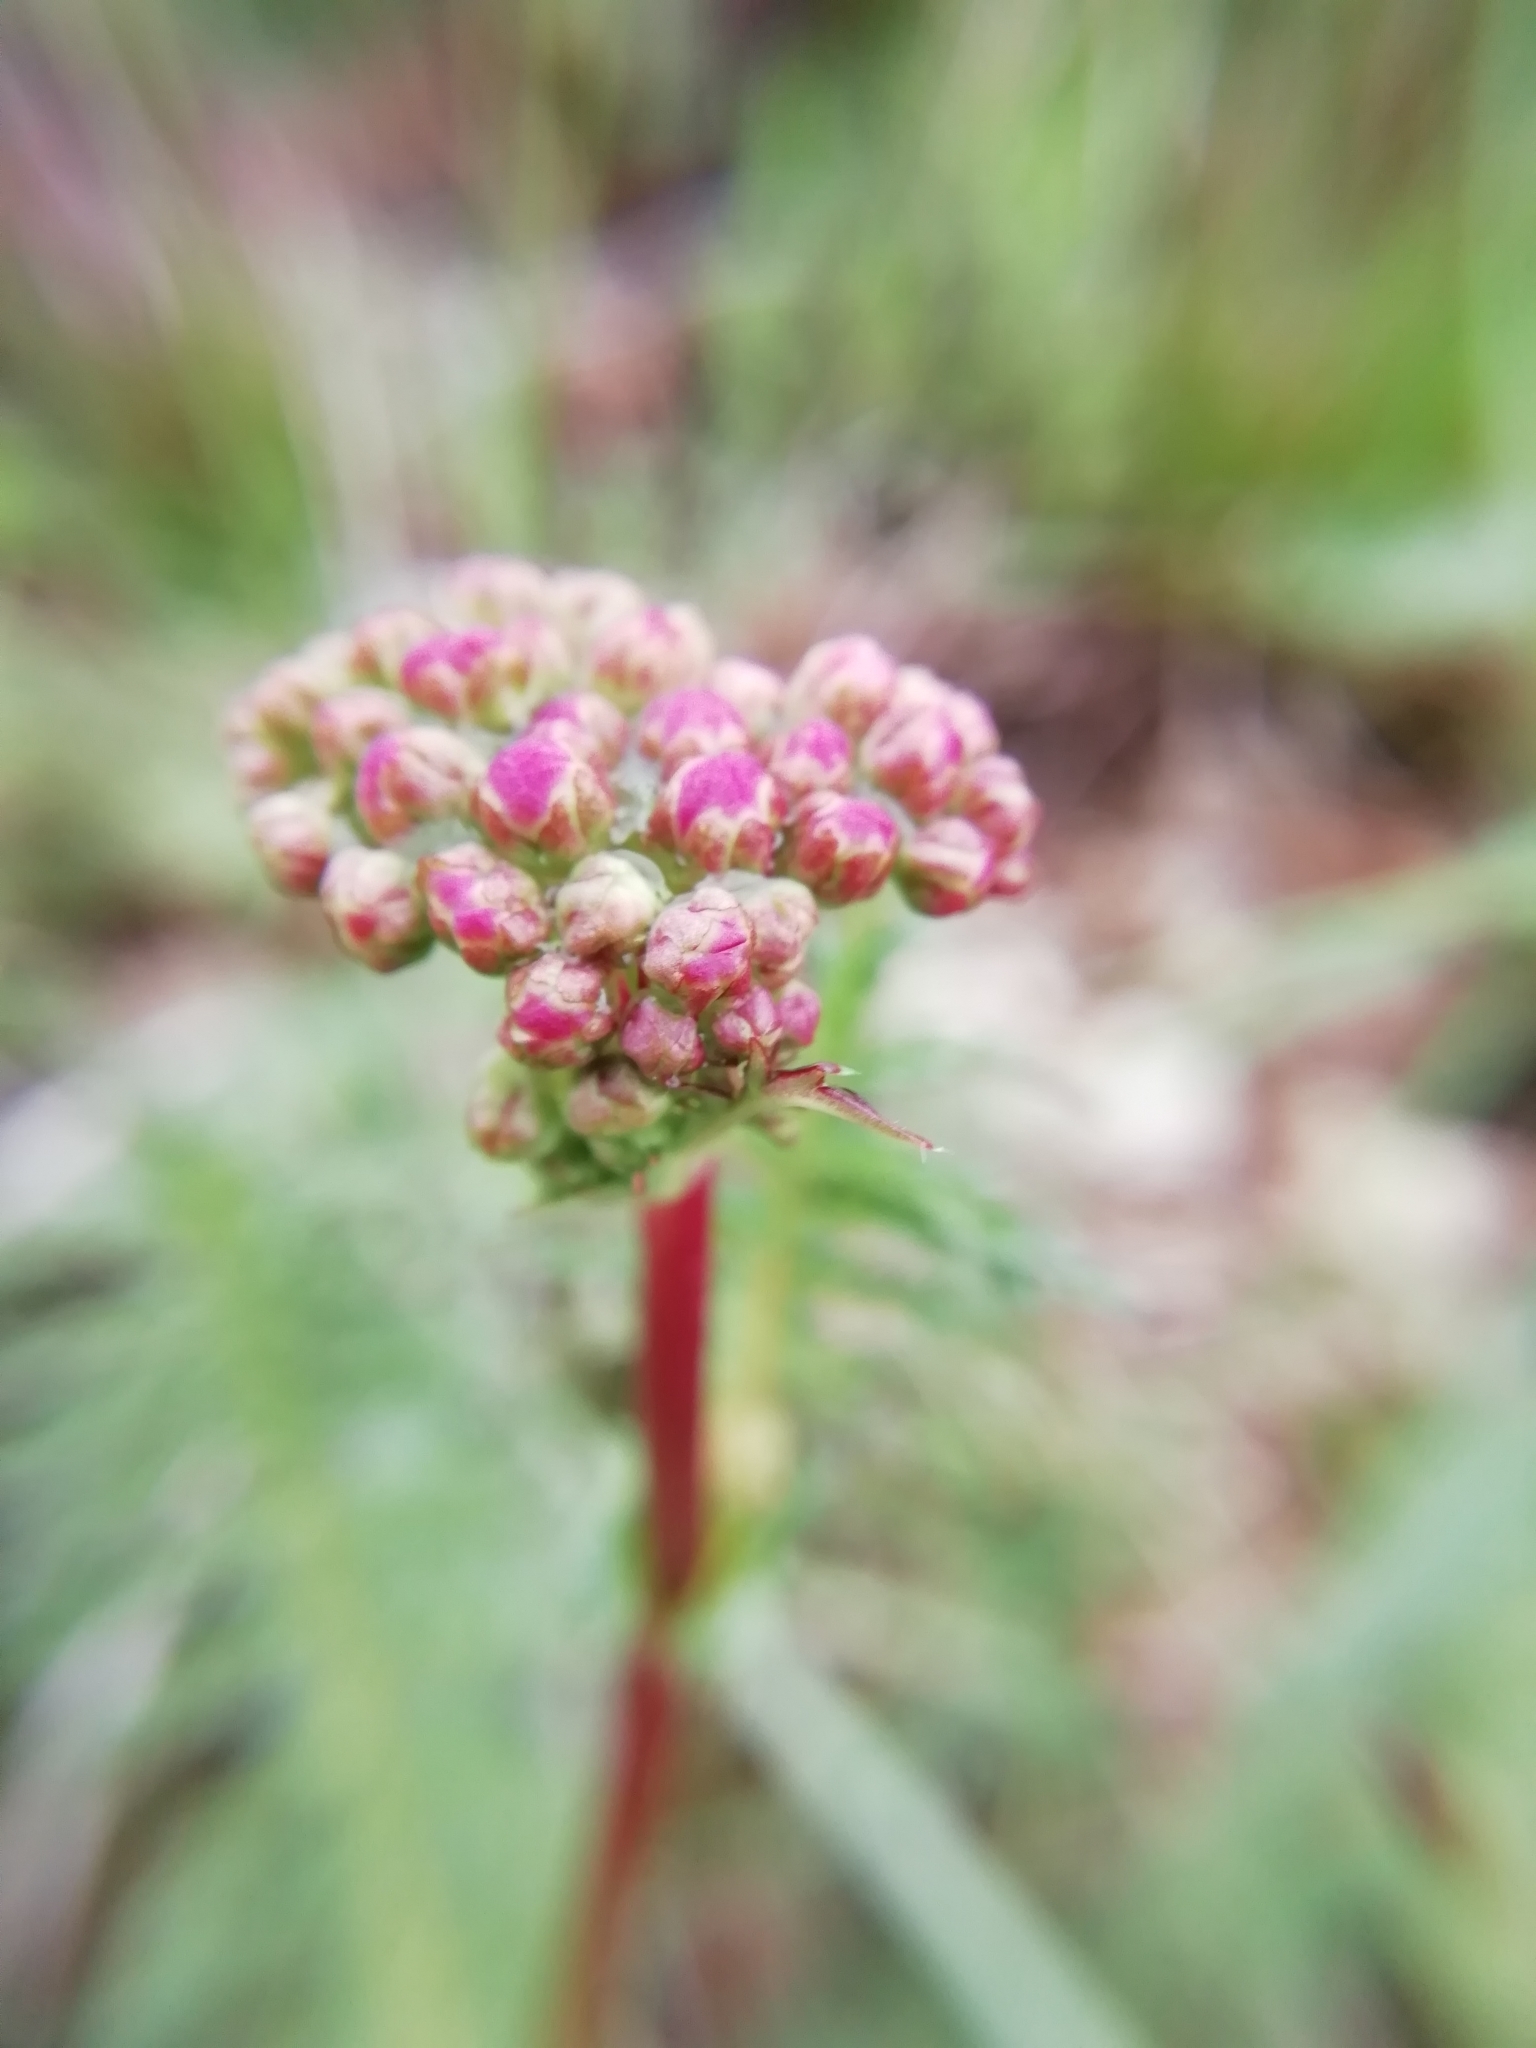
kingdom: Plantae
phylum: Tracheophyta
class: Magnoliopsida
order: Rosales
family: Rosaceae
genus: Filipendula
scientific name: Filipendula vulgaris
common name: Dropwort
